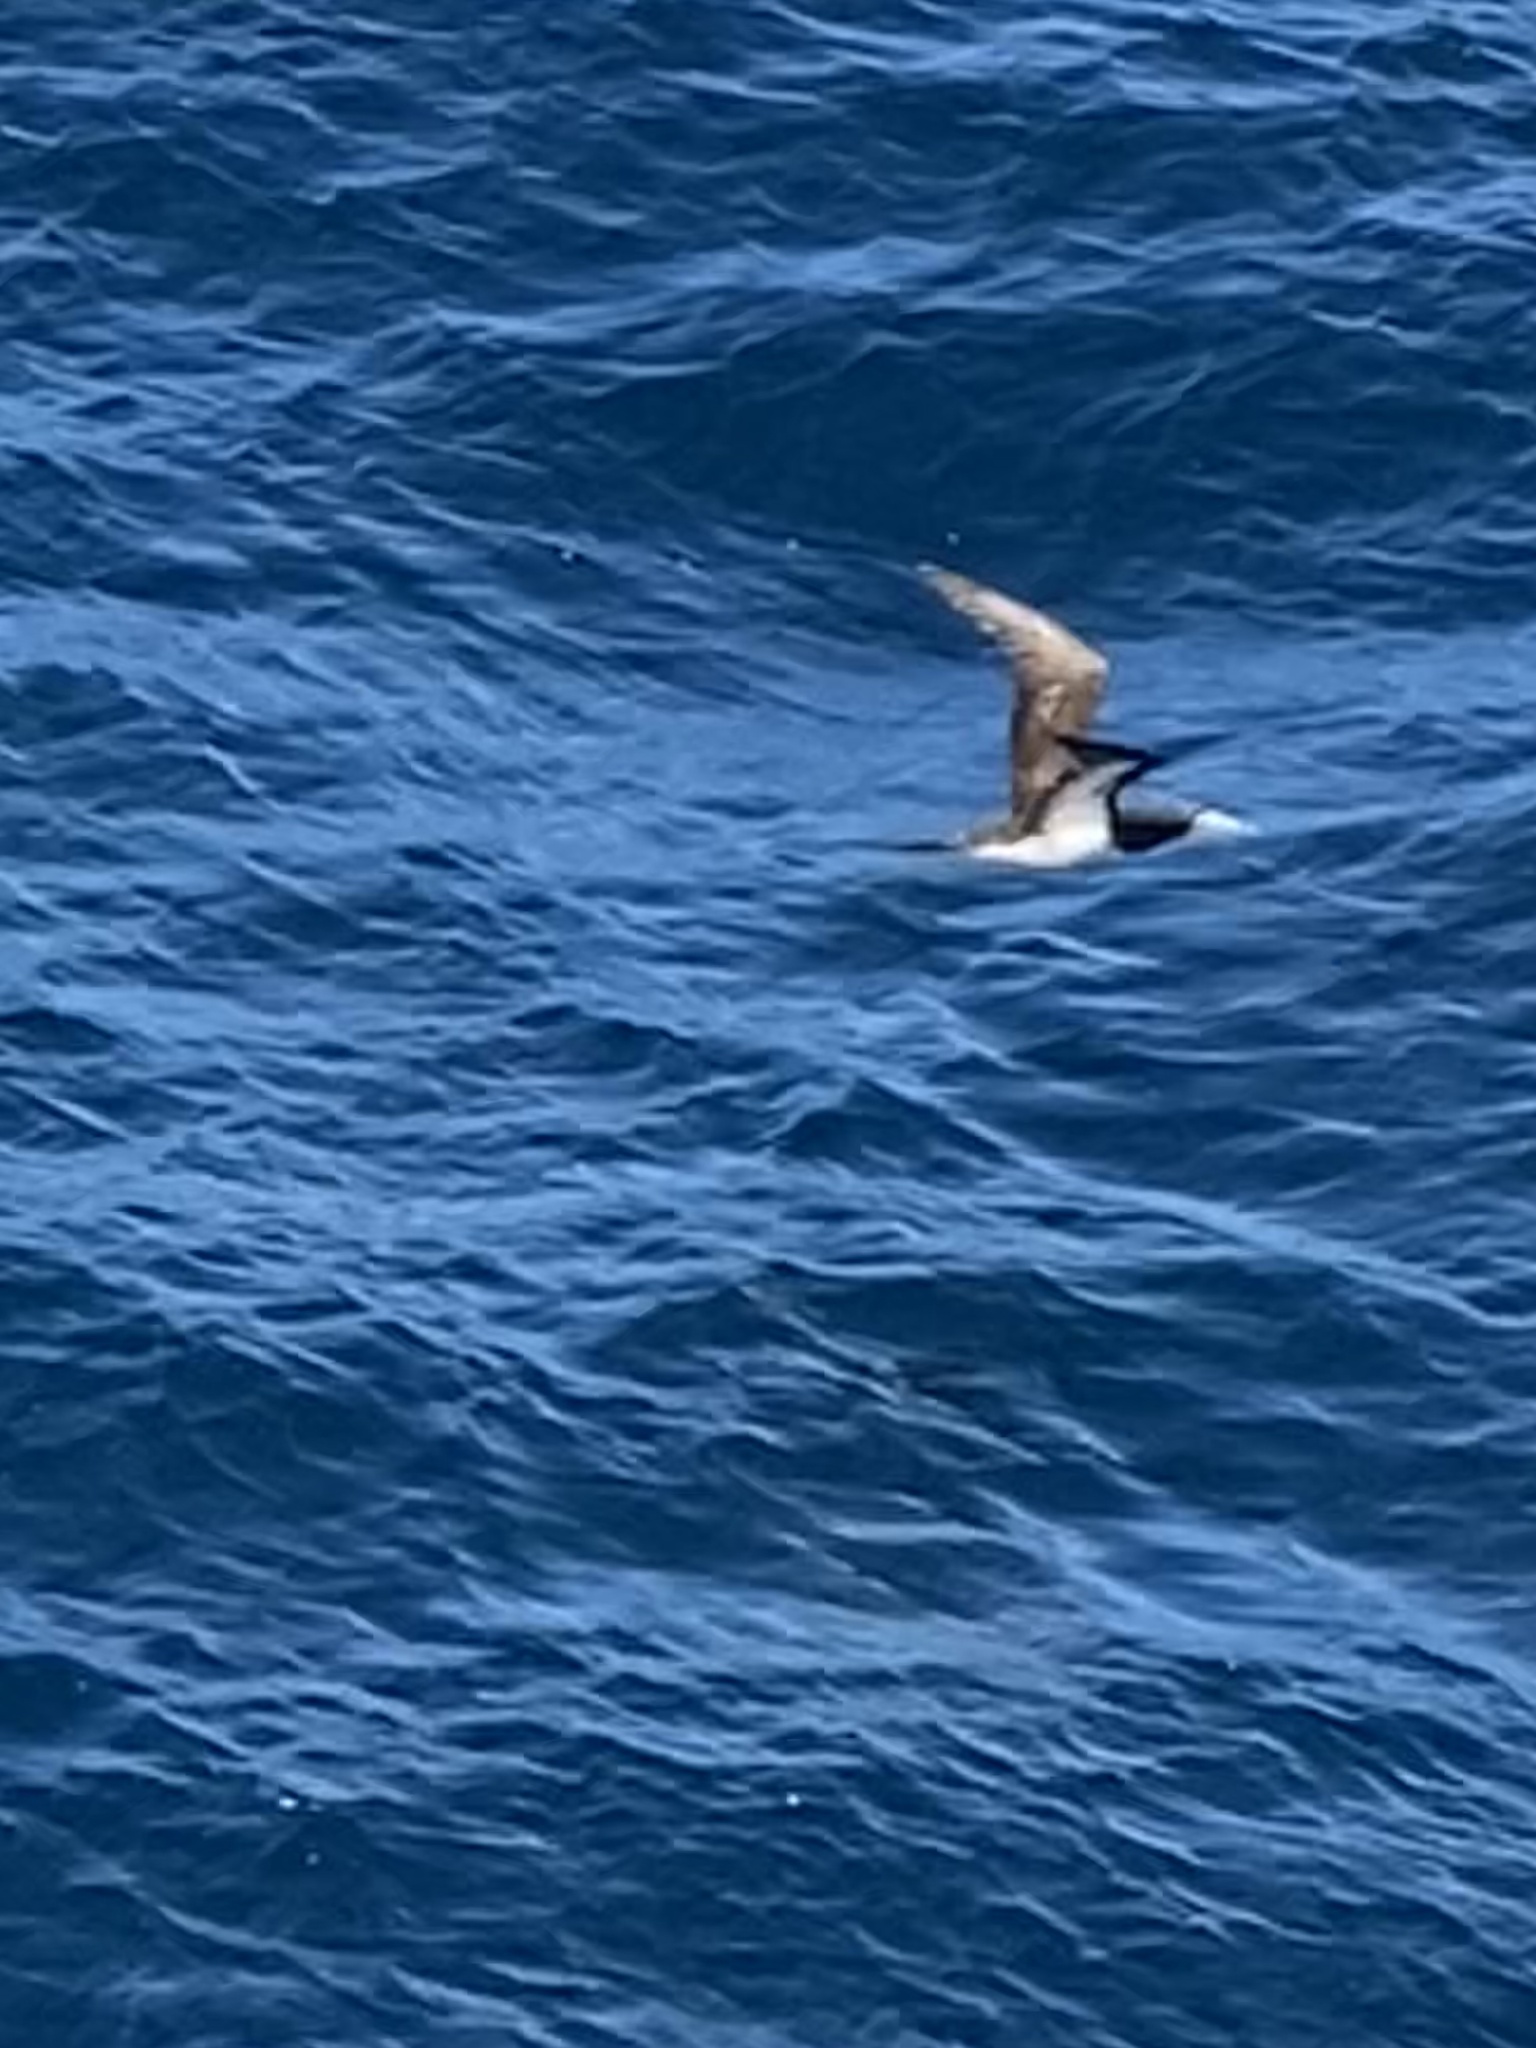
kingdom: Animalia
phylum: Chordata
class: Aves
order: Suliformes
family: Sulidae
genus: Sula
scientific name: Sula leucogaster
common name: Brown booby
